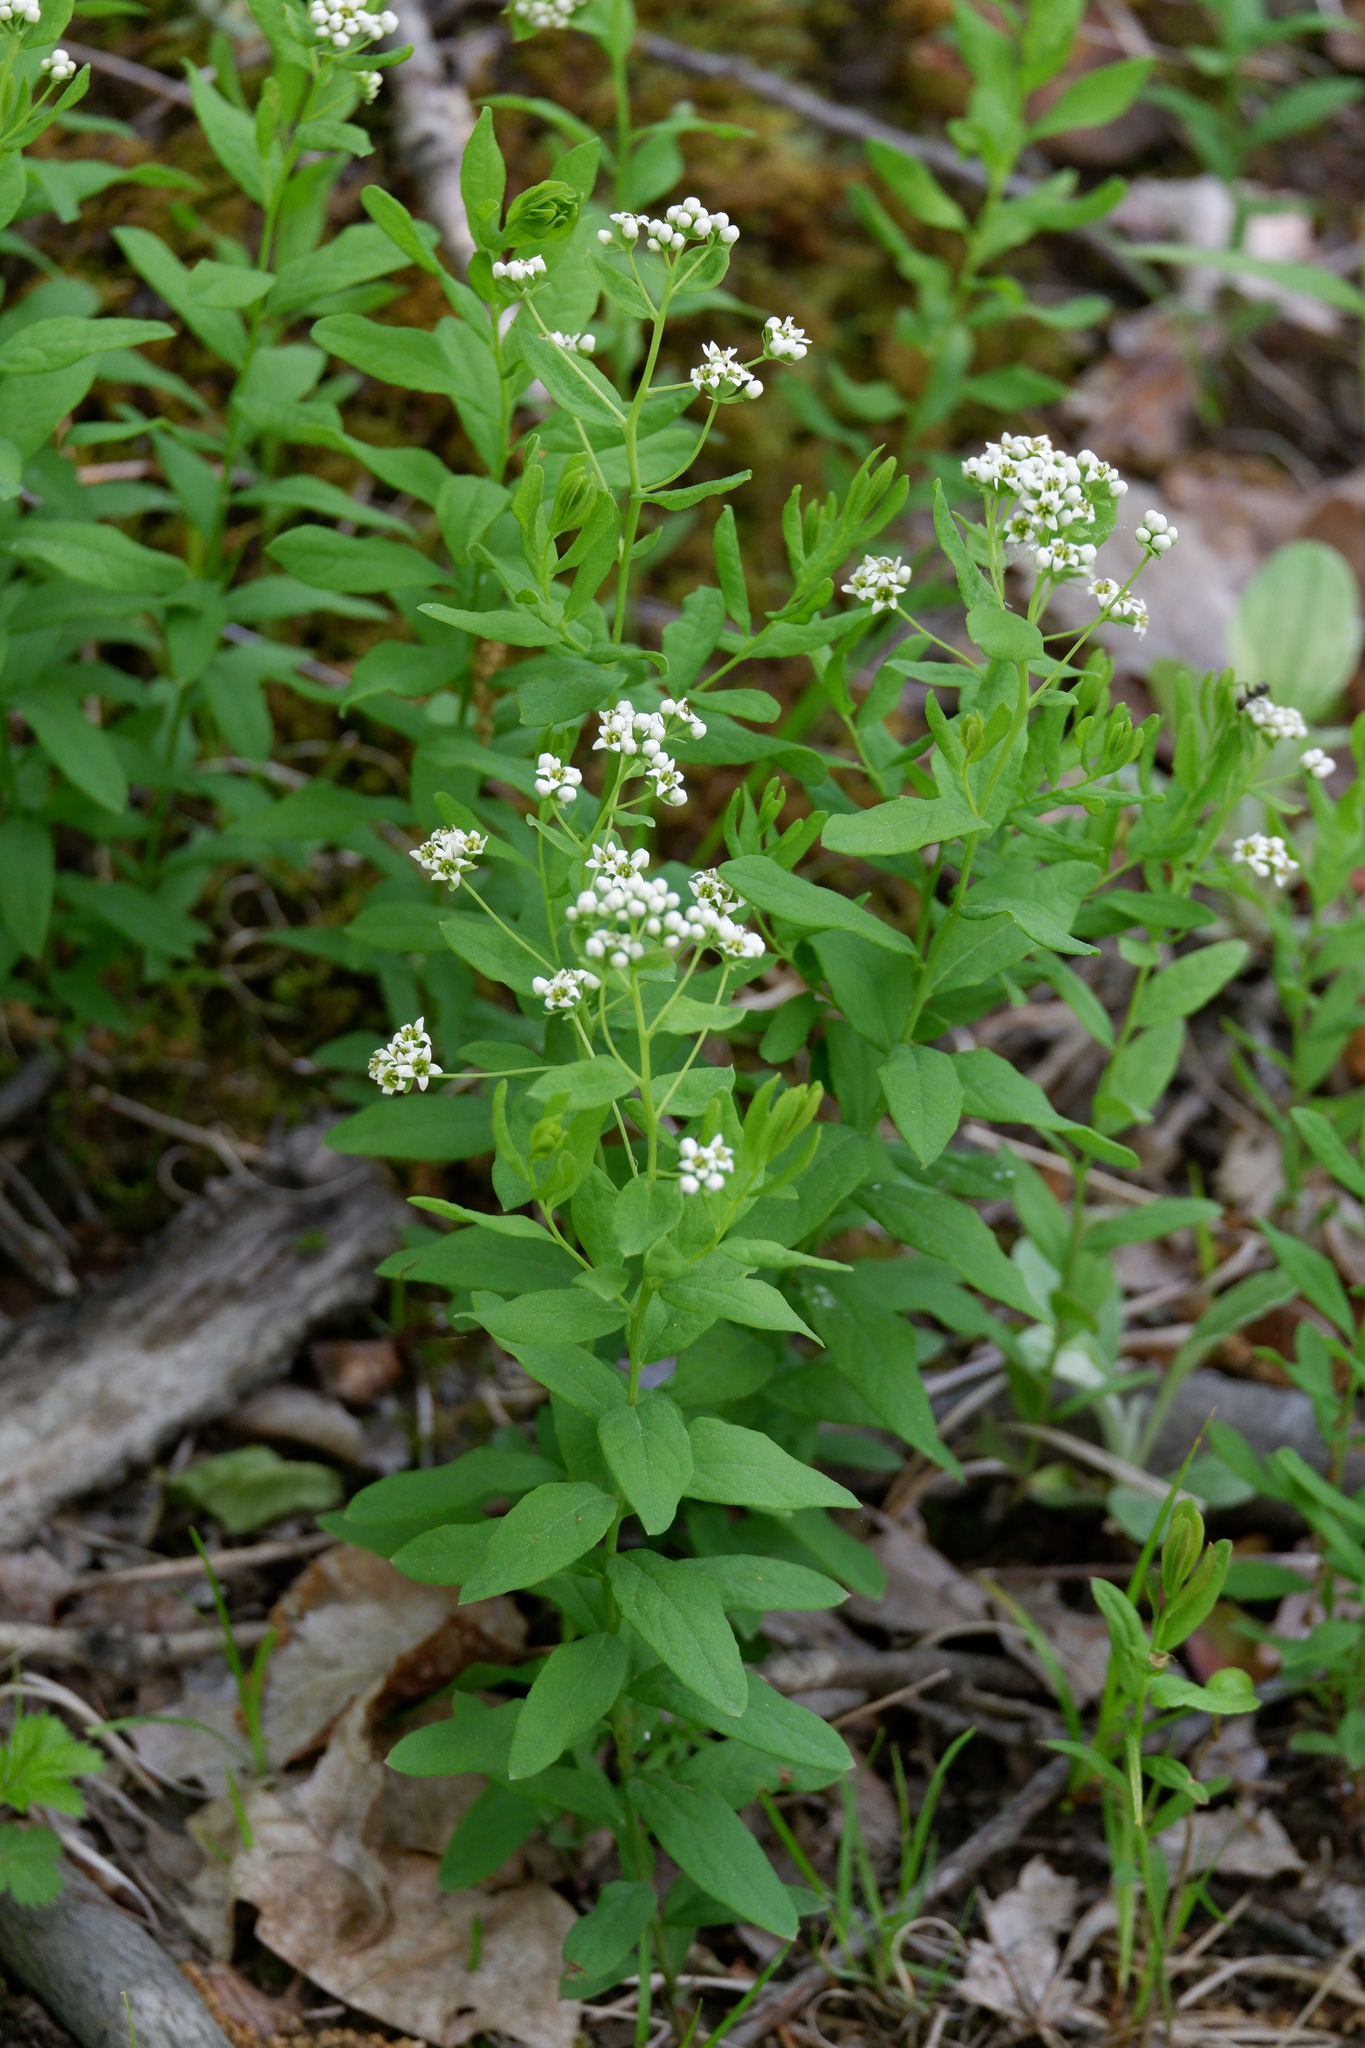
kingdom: Plantae
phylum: Tracheophyta
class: Magnoliopsida
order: Santalales
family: Comandraceae
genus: Comandra
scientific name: Comandra umbellata
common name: Bastard toadflax
